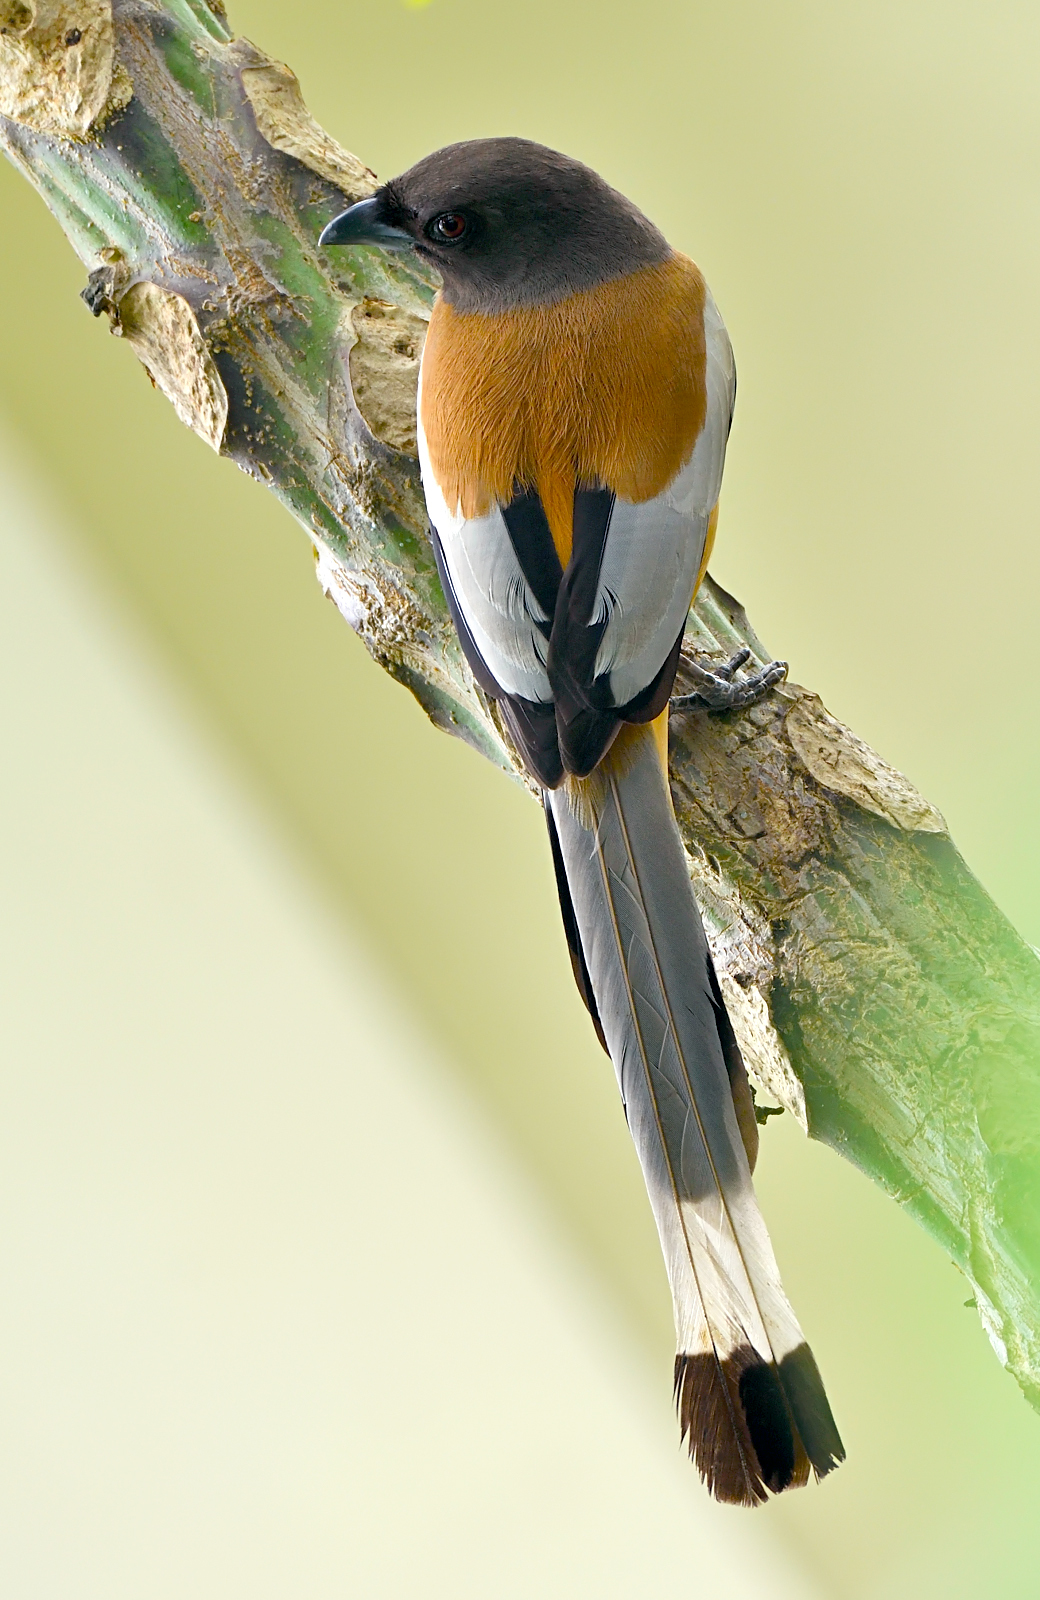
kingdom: Animalia
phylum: Chordata
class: Aves
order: Passeriformes
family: Corvidae
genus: Dendrocitta
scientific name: Dendrocitta vagabunda
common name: Rufous treepie
